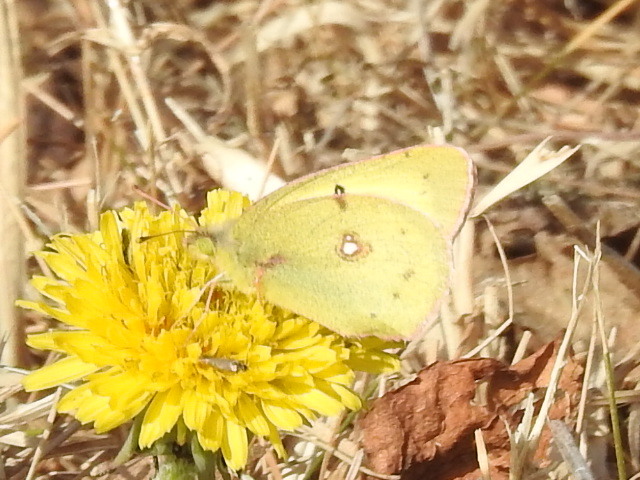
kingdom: Animalia
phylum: Arthropoda
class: Insecta
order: Lepidoptera
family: Pieridae
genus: Colias
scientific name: Colias eurytheme
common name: Alfalfa butterfly
